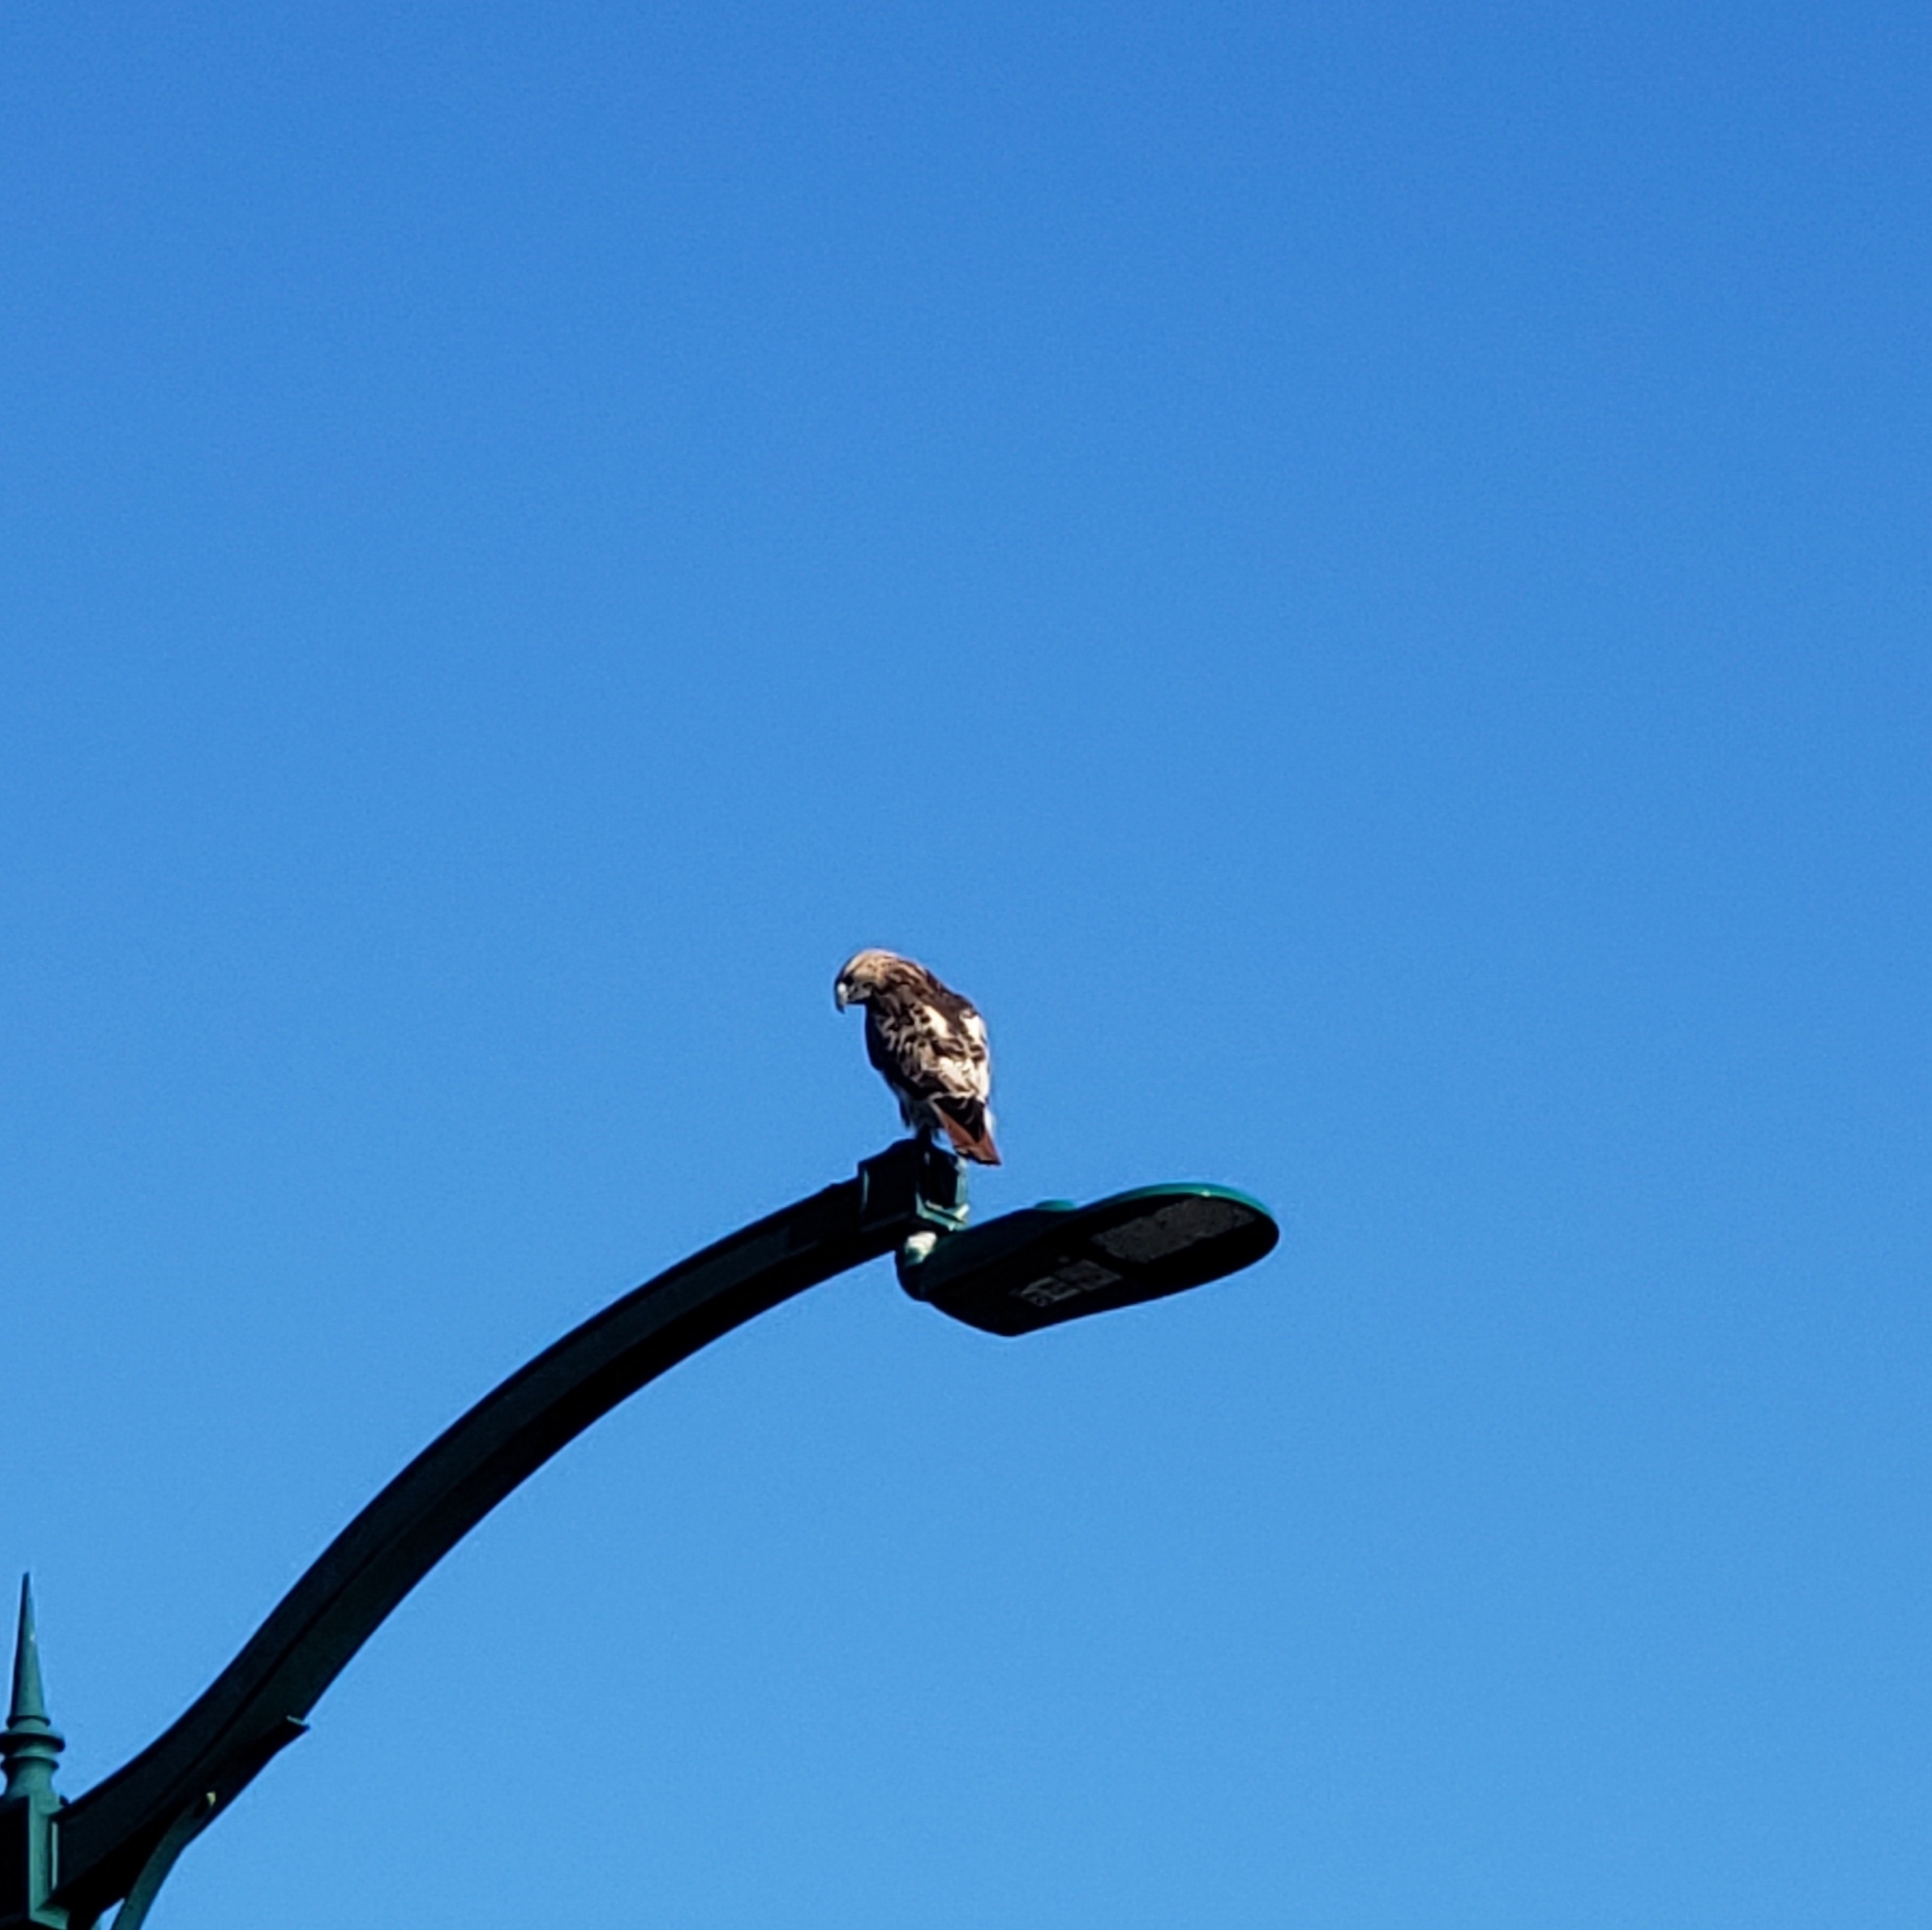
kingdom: Animalia
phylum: Chordata
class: Aves
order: Accipitriformes
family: Accipitridae
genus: Buteo
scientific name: Buteo jamaicensis
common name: Red-tailed hawk
